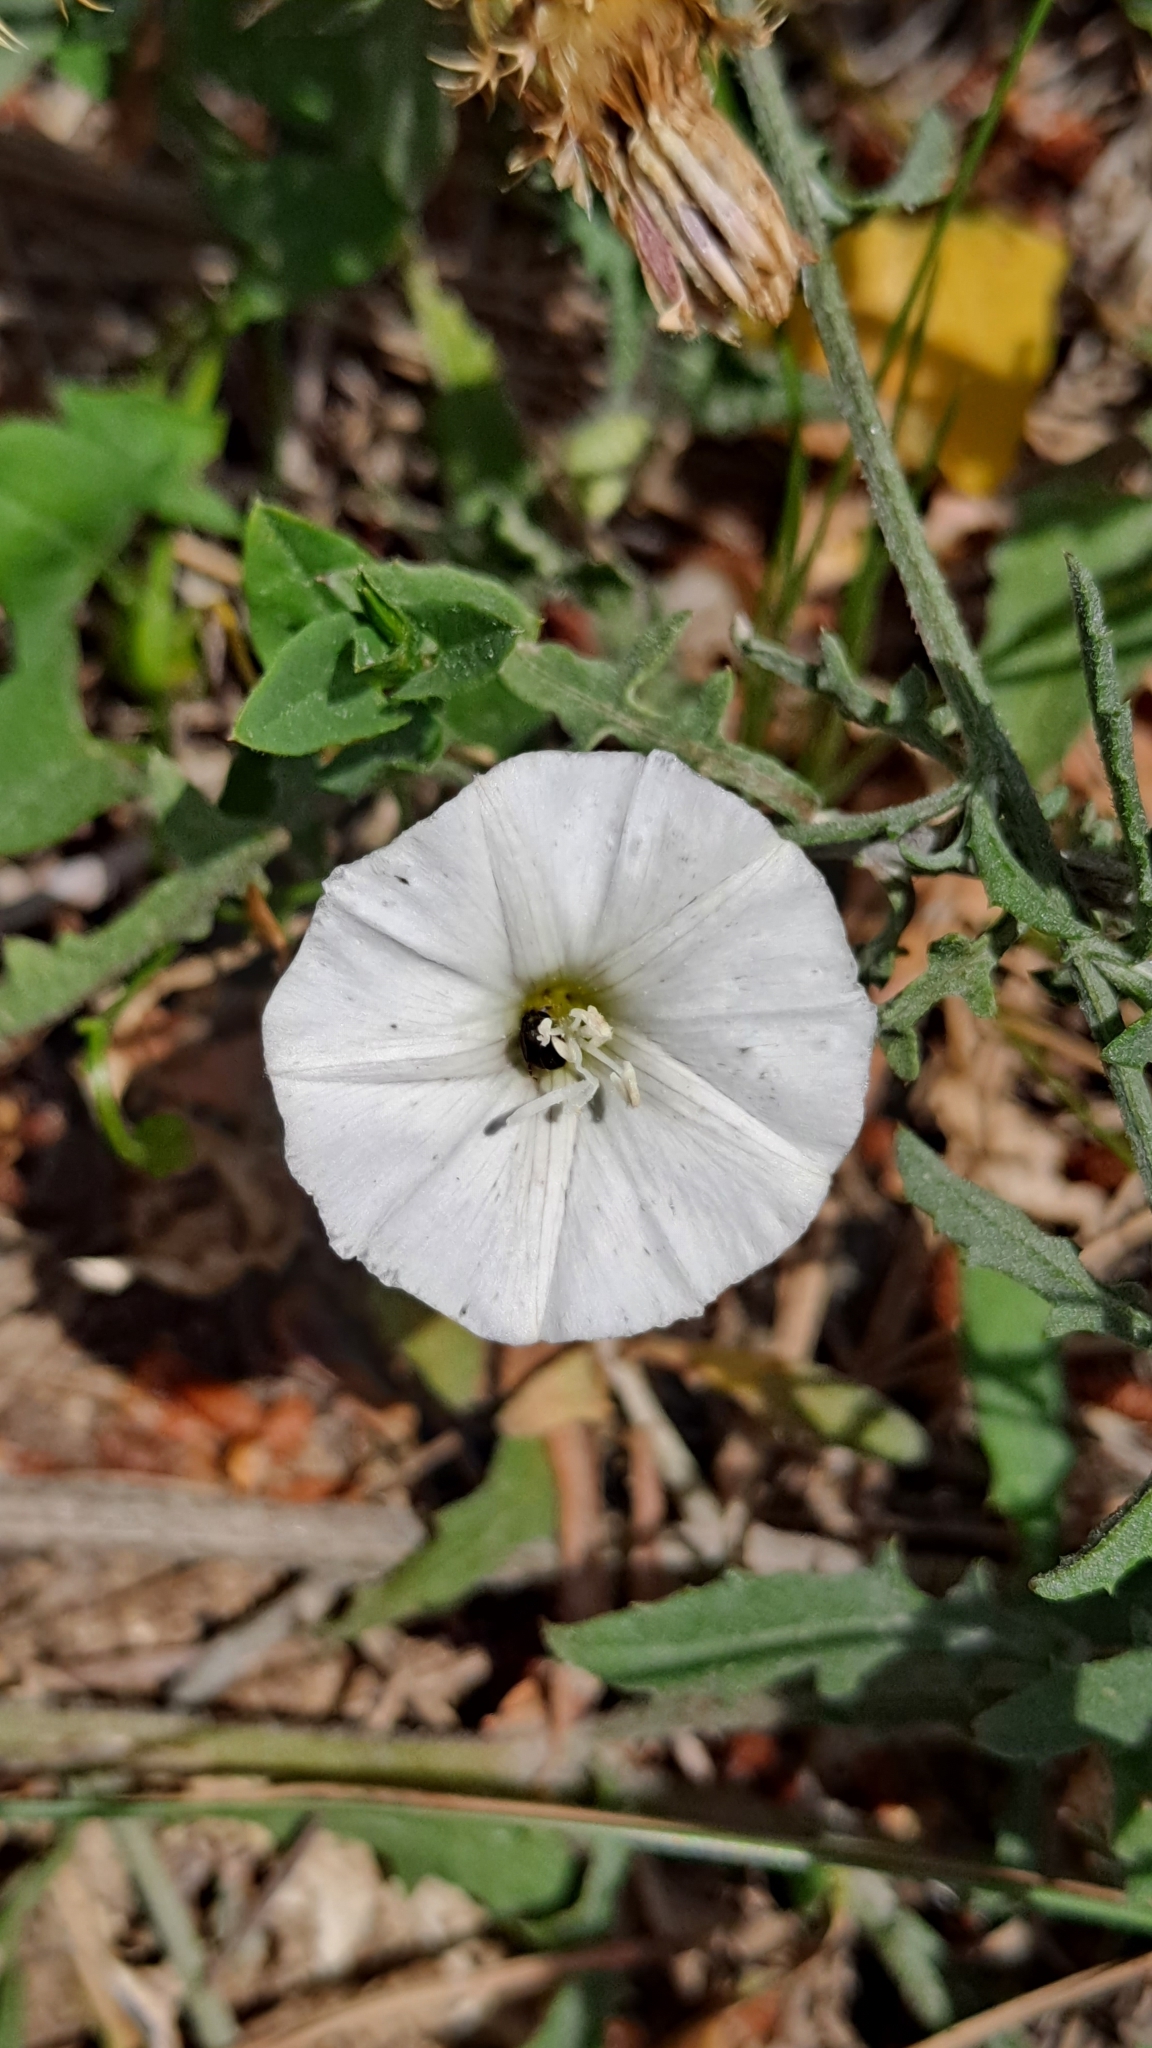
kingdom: Plantae
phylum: Tracheophyta
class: Magnoliopsida
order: Solanales
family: Convolvulaceae
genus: Convolvulus
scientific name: Convolvulus arvensis
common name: Field bindweed
